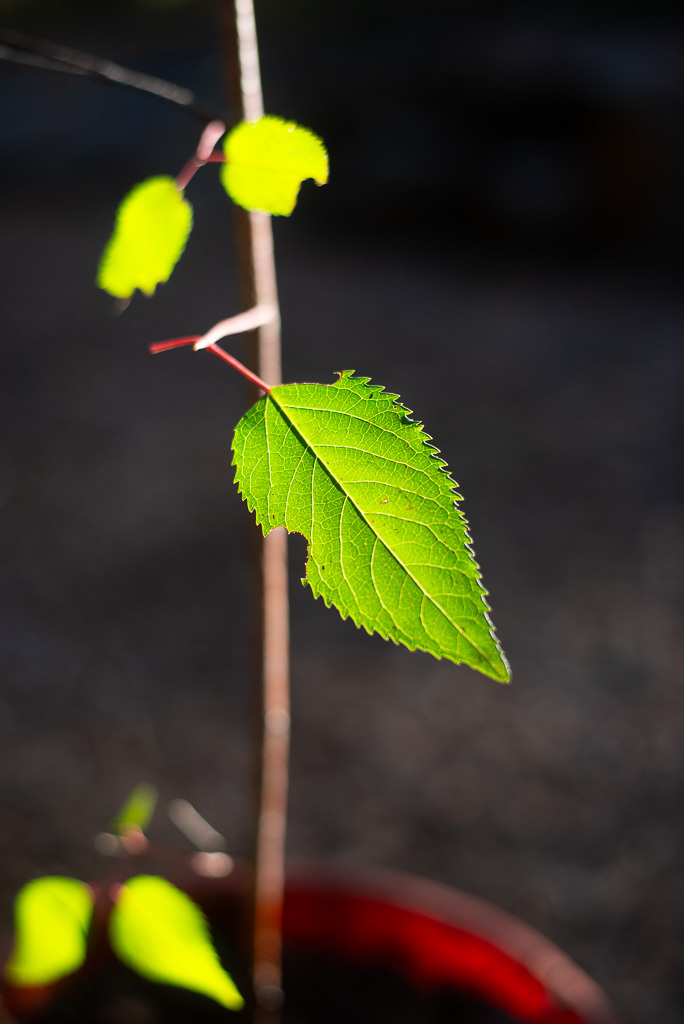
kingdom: Plantae
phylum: Tracheophyta
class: Magnoliopsida
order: Oxalidales
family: Elaeocarpaceae
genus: Aristotelia
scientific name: Aristotelia chilensis
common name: Maquei
